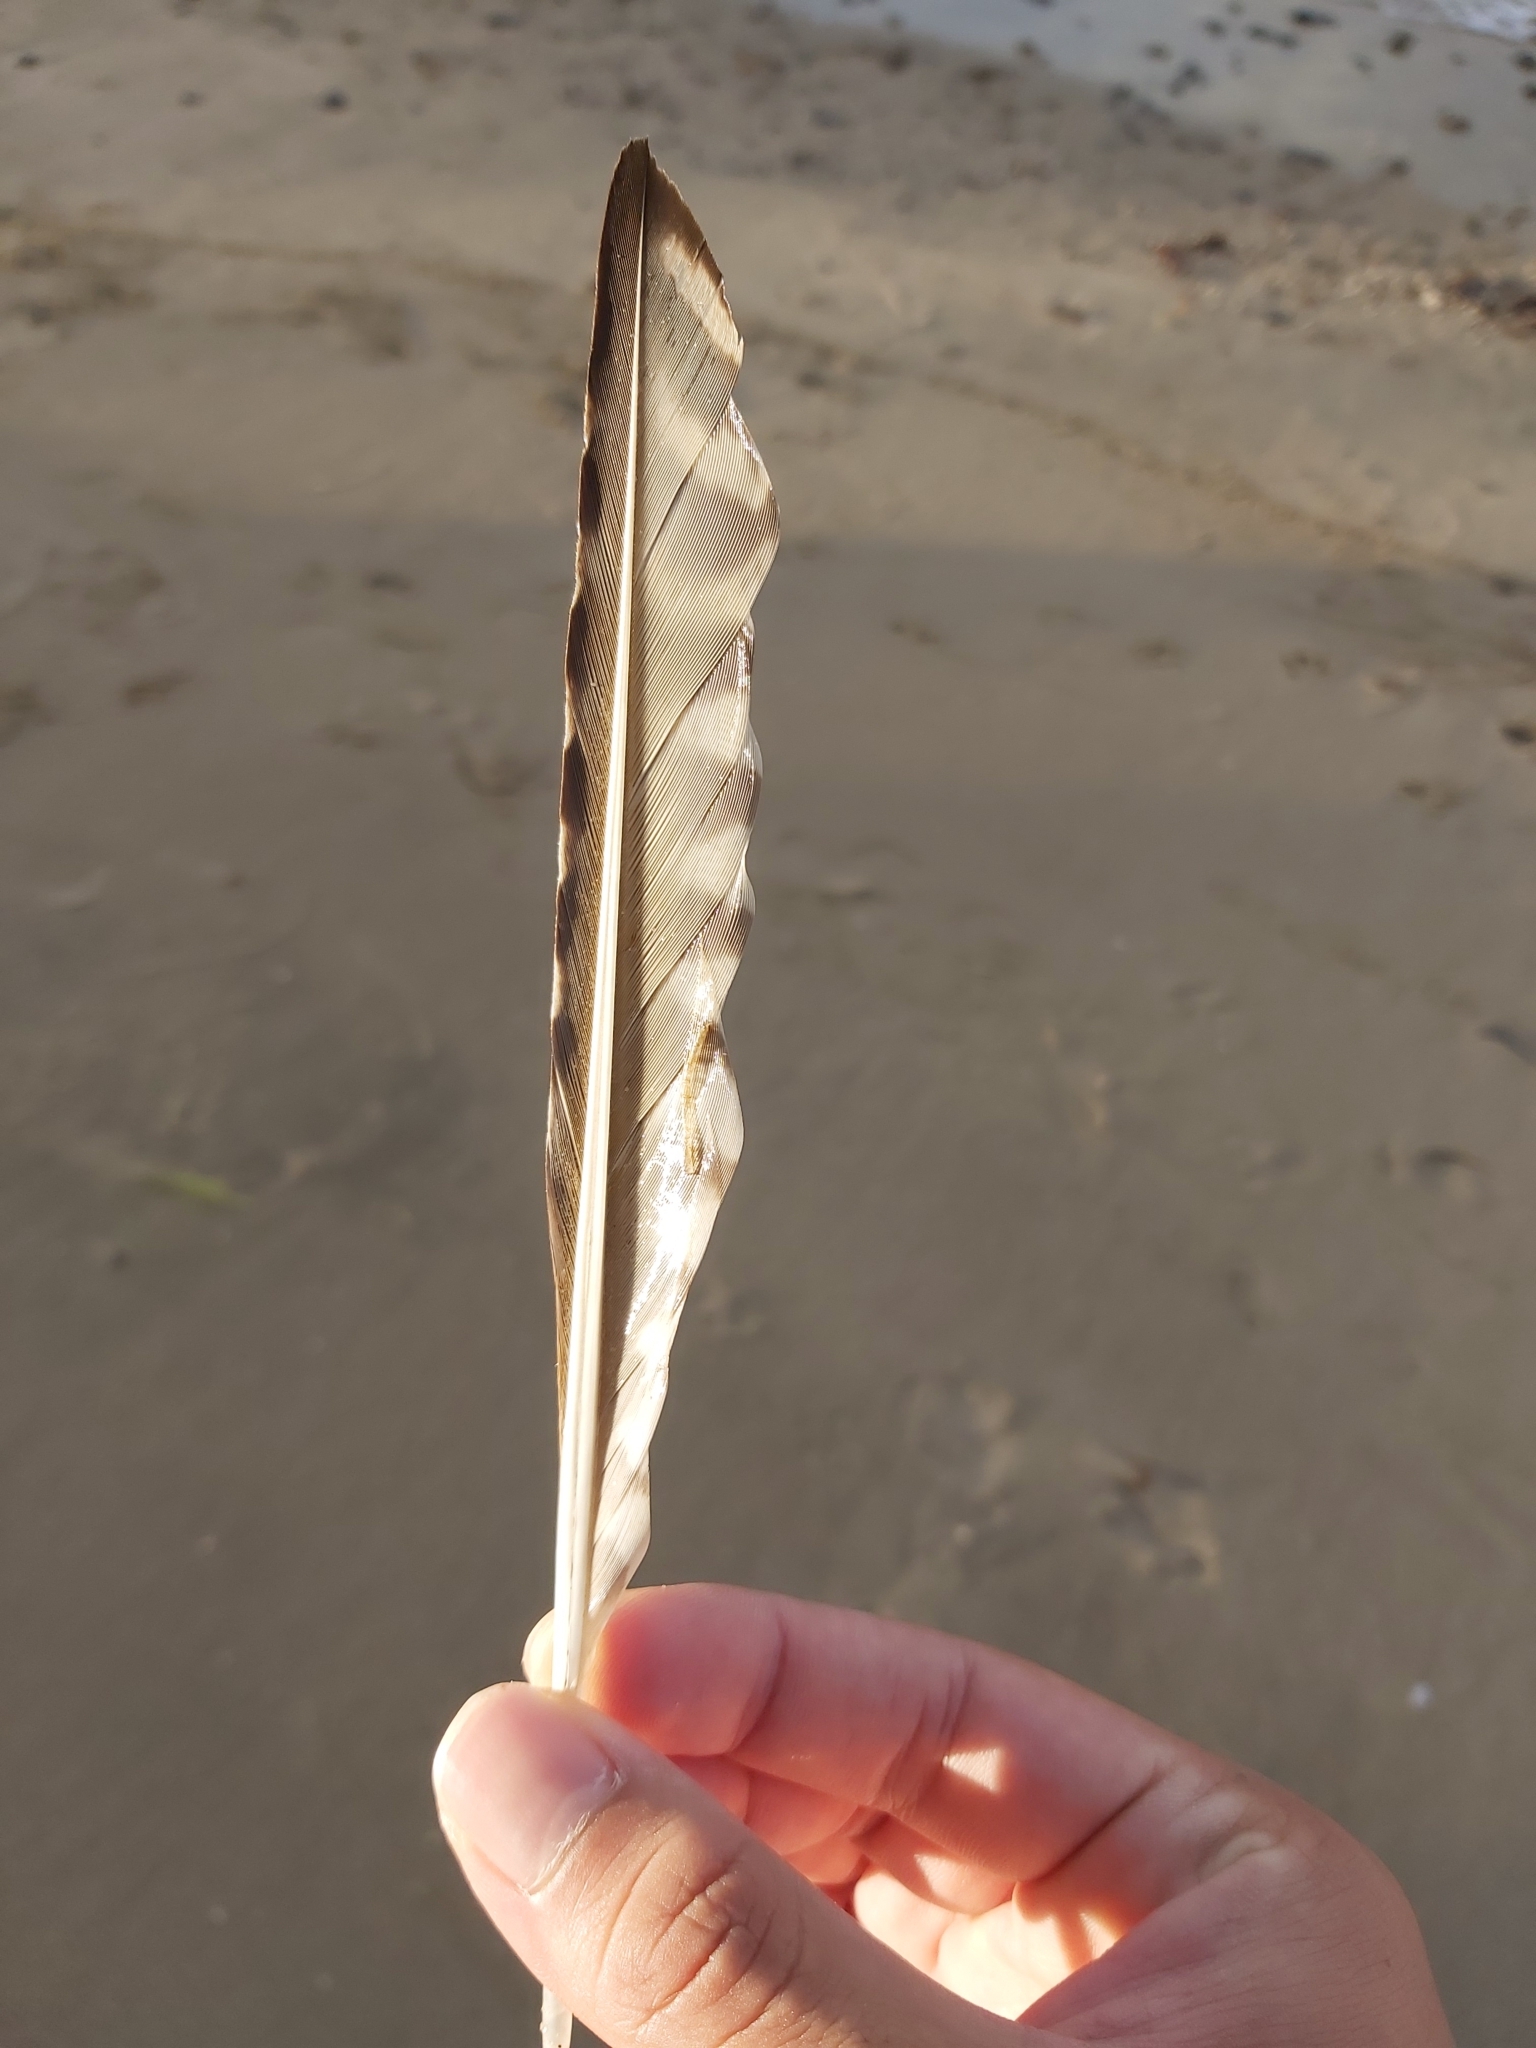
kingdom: Animalia
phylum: Chordata
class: Aves
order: Charadriiformes
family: Scolopacidae
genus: Numenius
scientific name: Numenius madagascariensis
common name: Far eastern curlew
